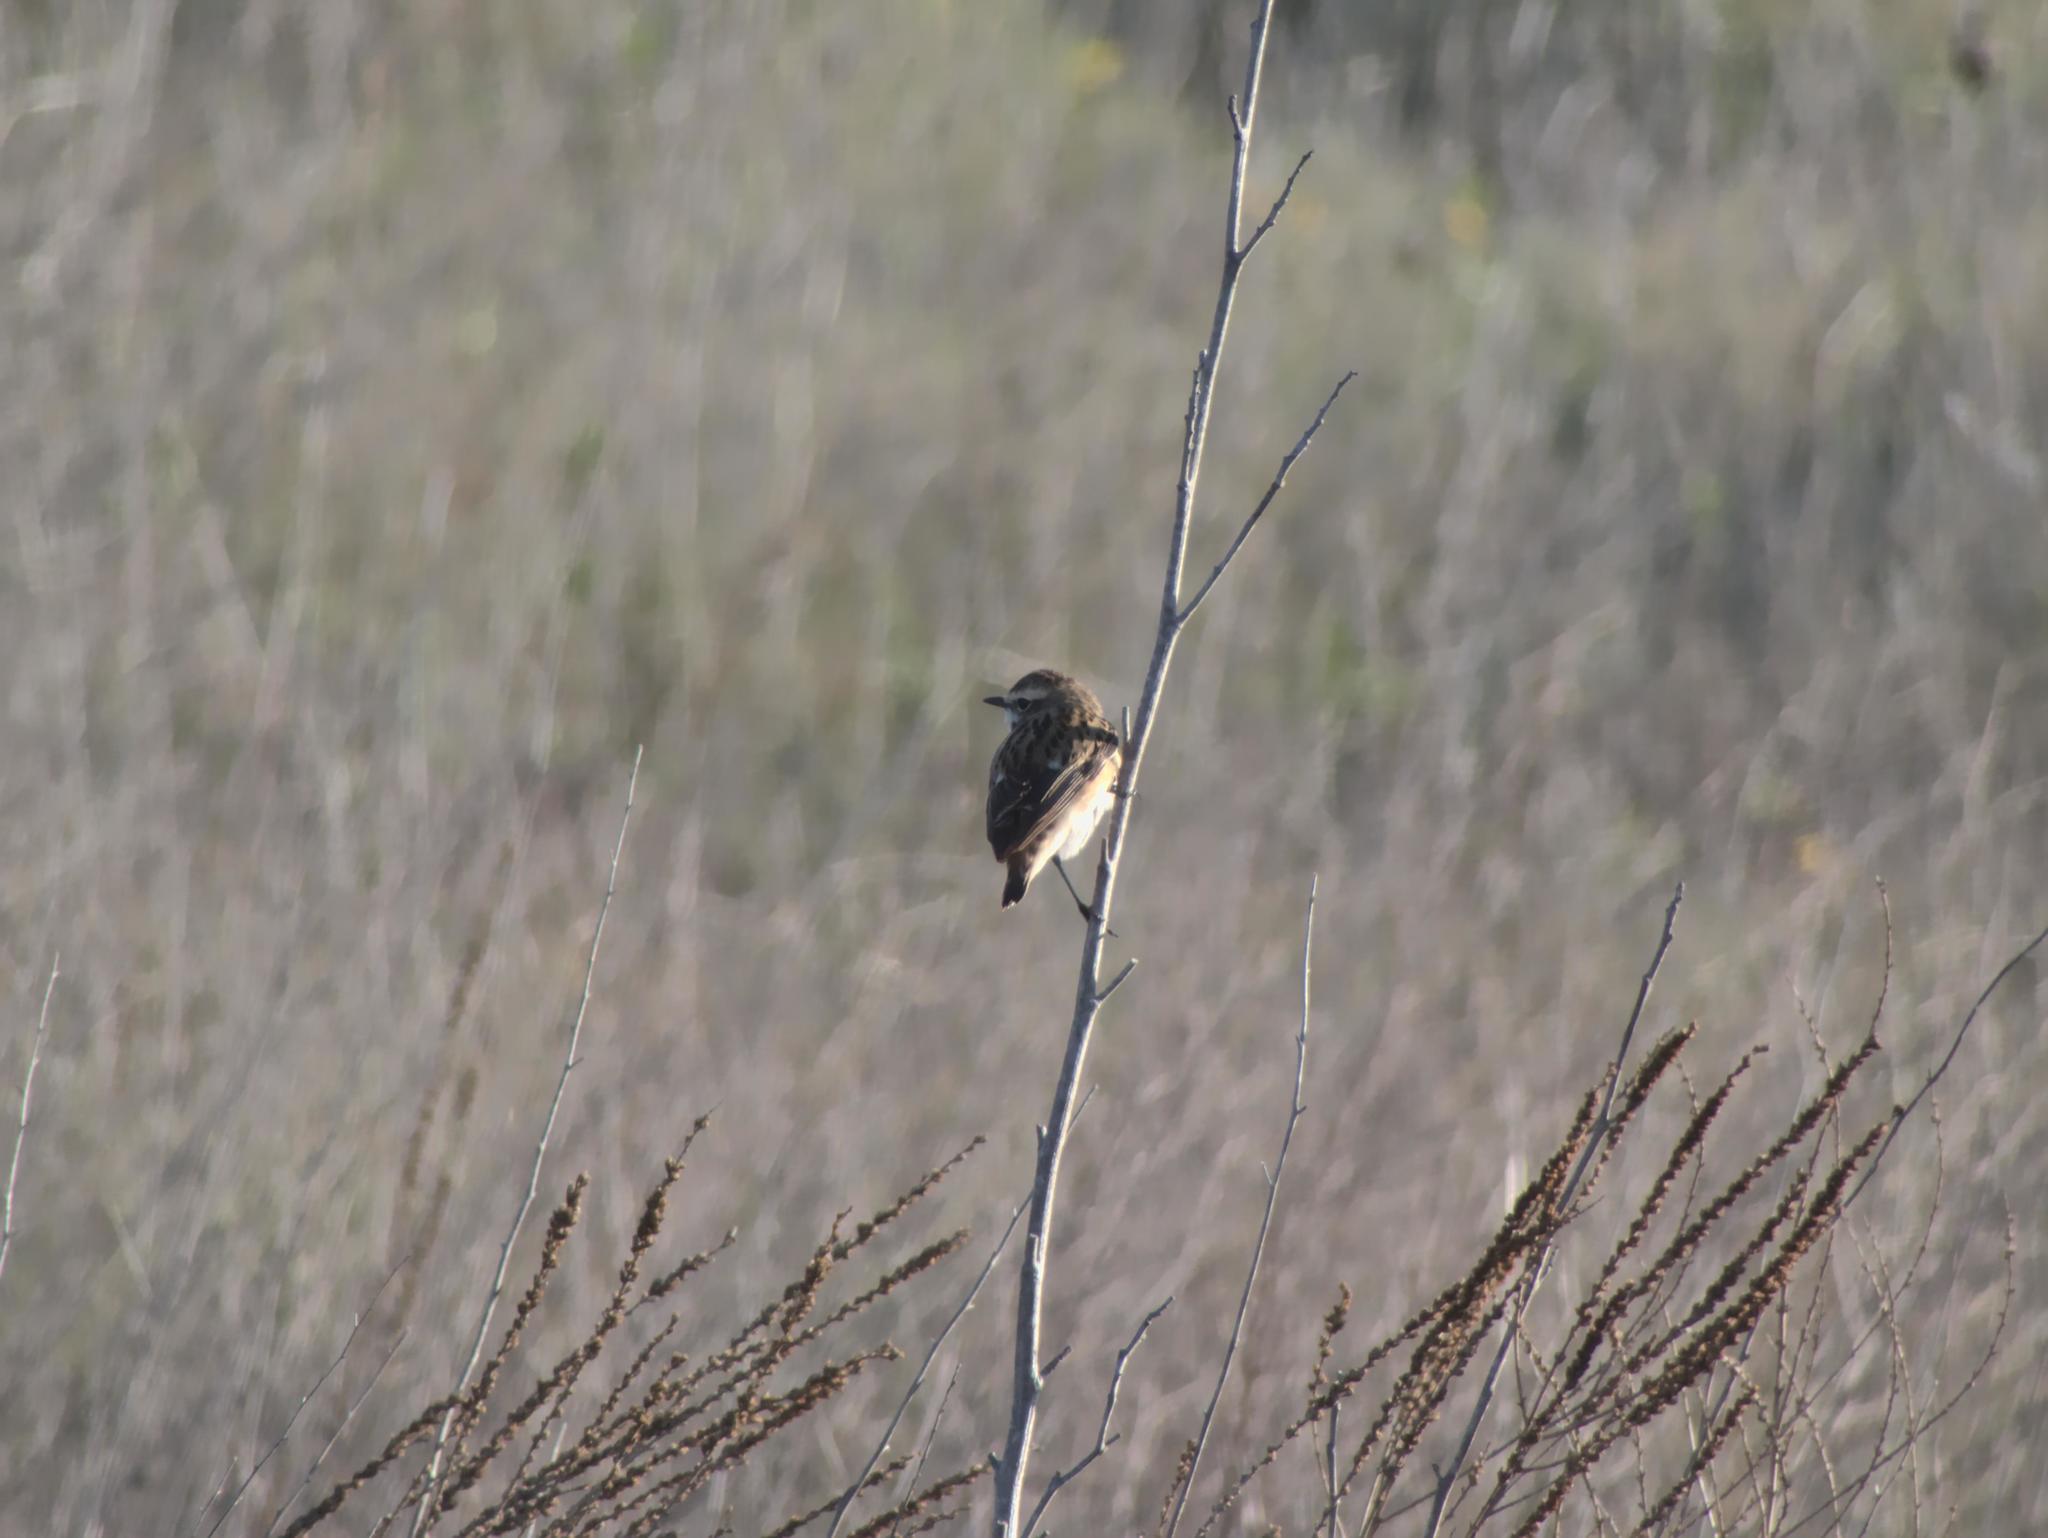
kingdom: Animalia
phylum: Chordata
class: Aves
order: Passeriformes
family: Muscicapidae
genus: Saxicola
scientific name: Saxicola rubetra
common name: Whinchat
